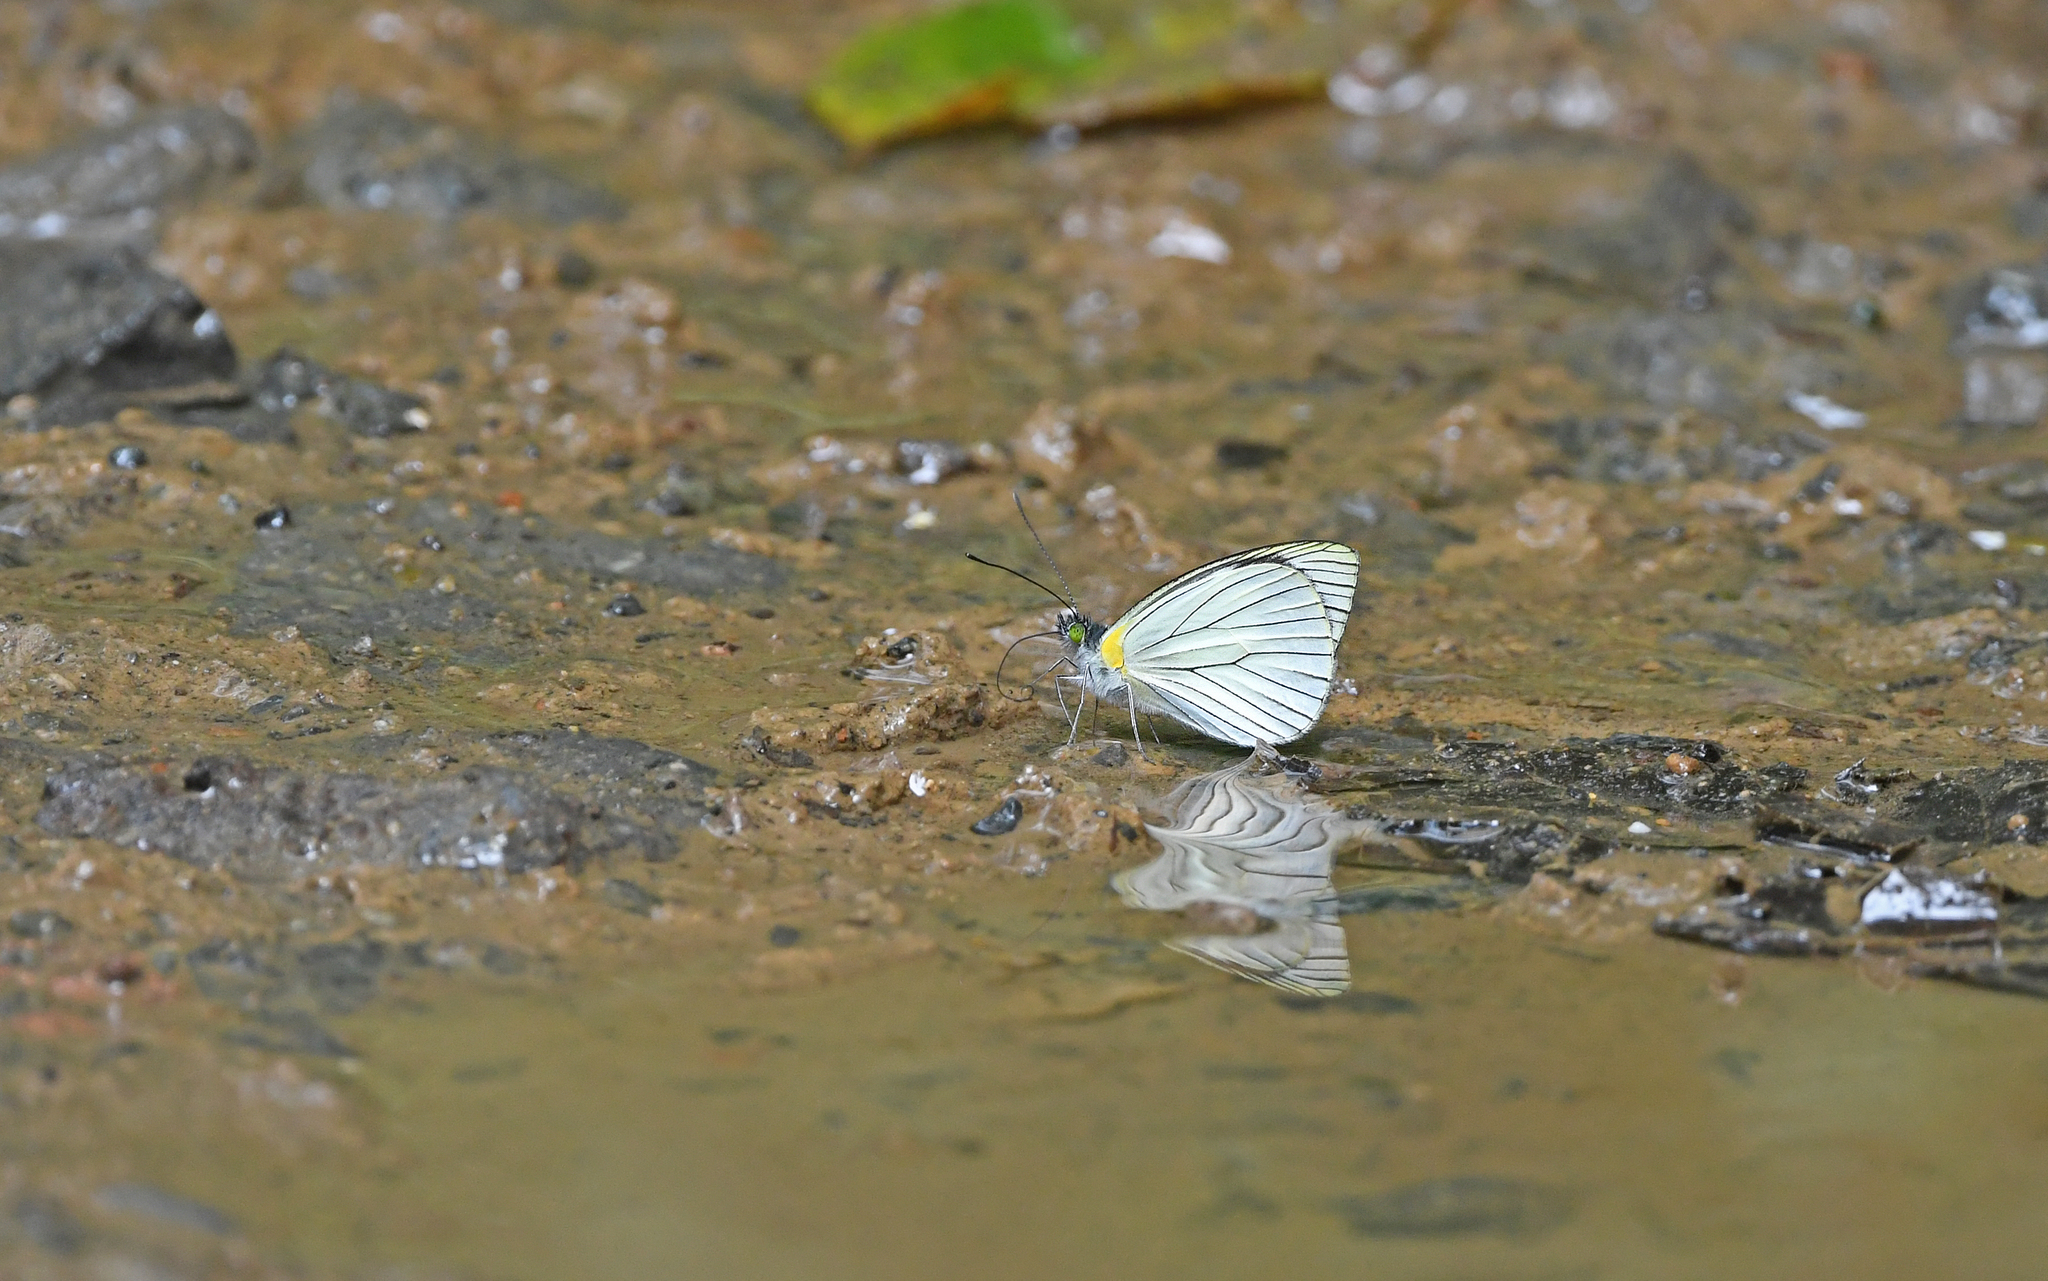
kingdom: Animalia
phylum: Arthropoda
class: Insecta
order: Lepidoptera
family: Pieridae
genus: Leptophobia
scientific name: Leptophobia penthica
